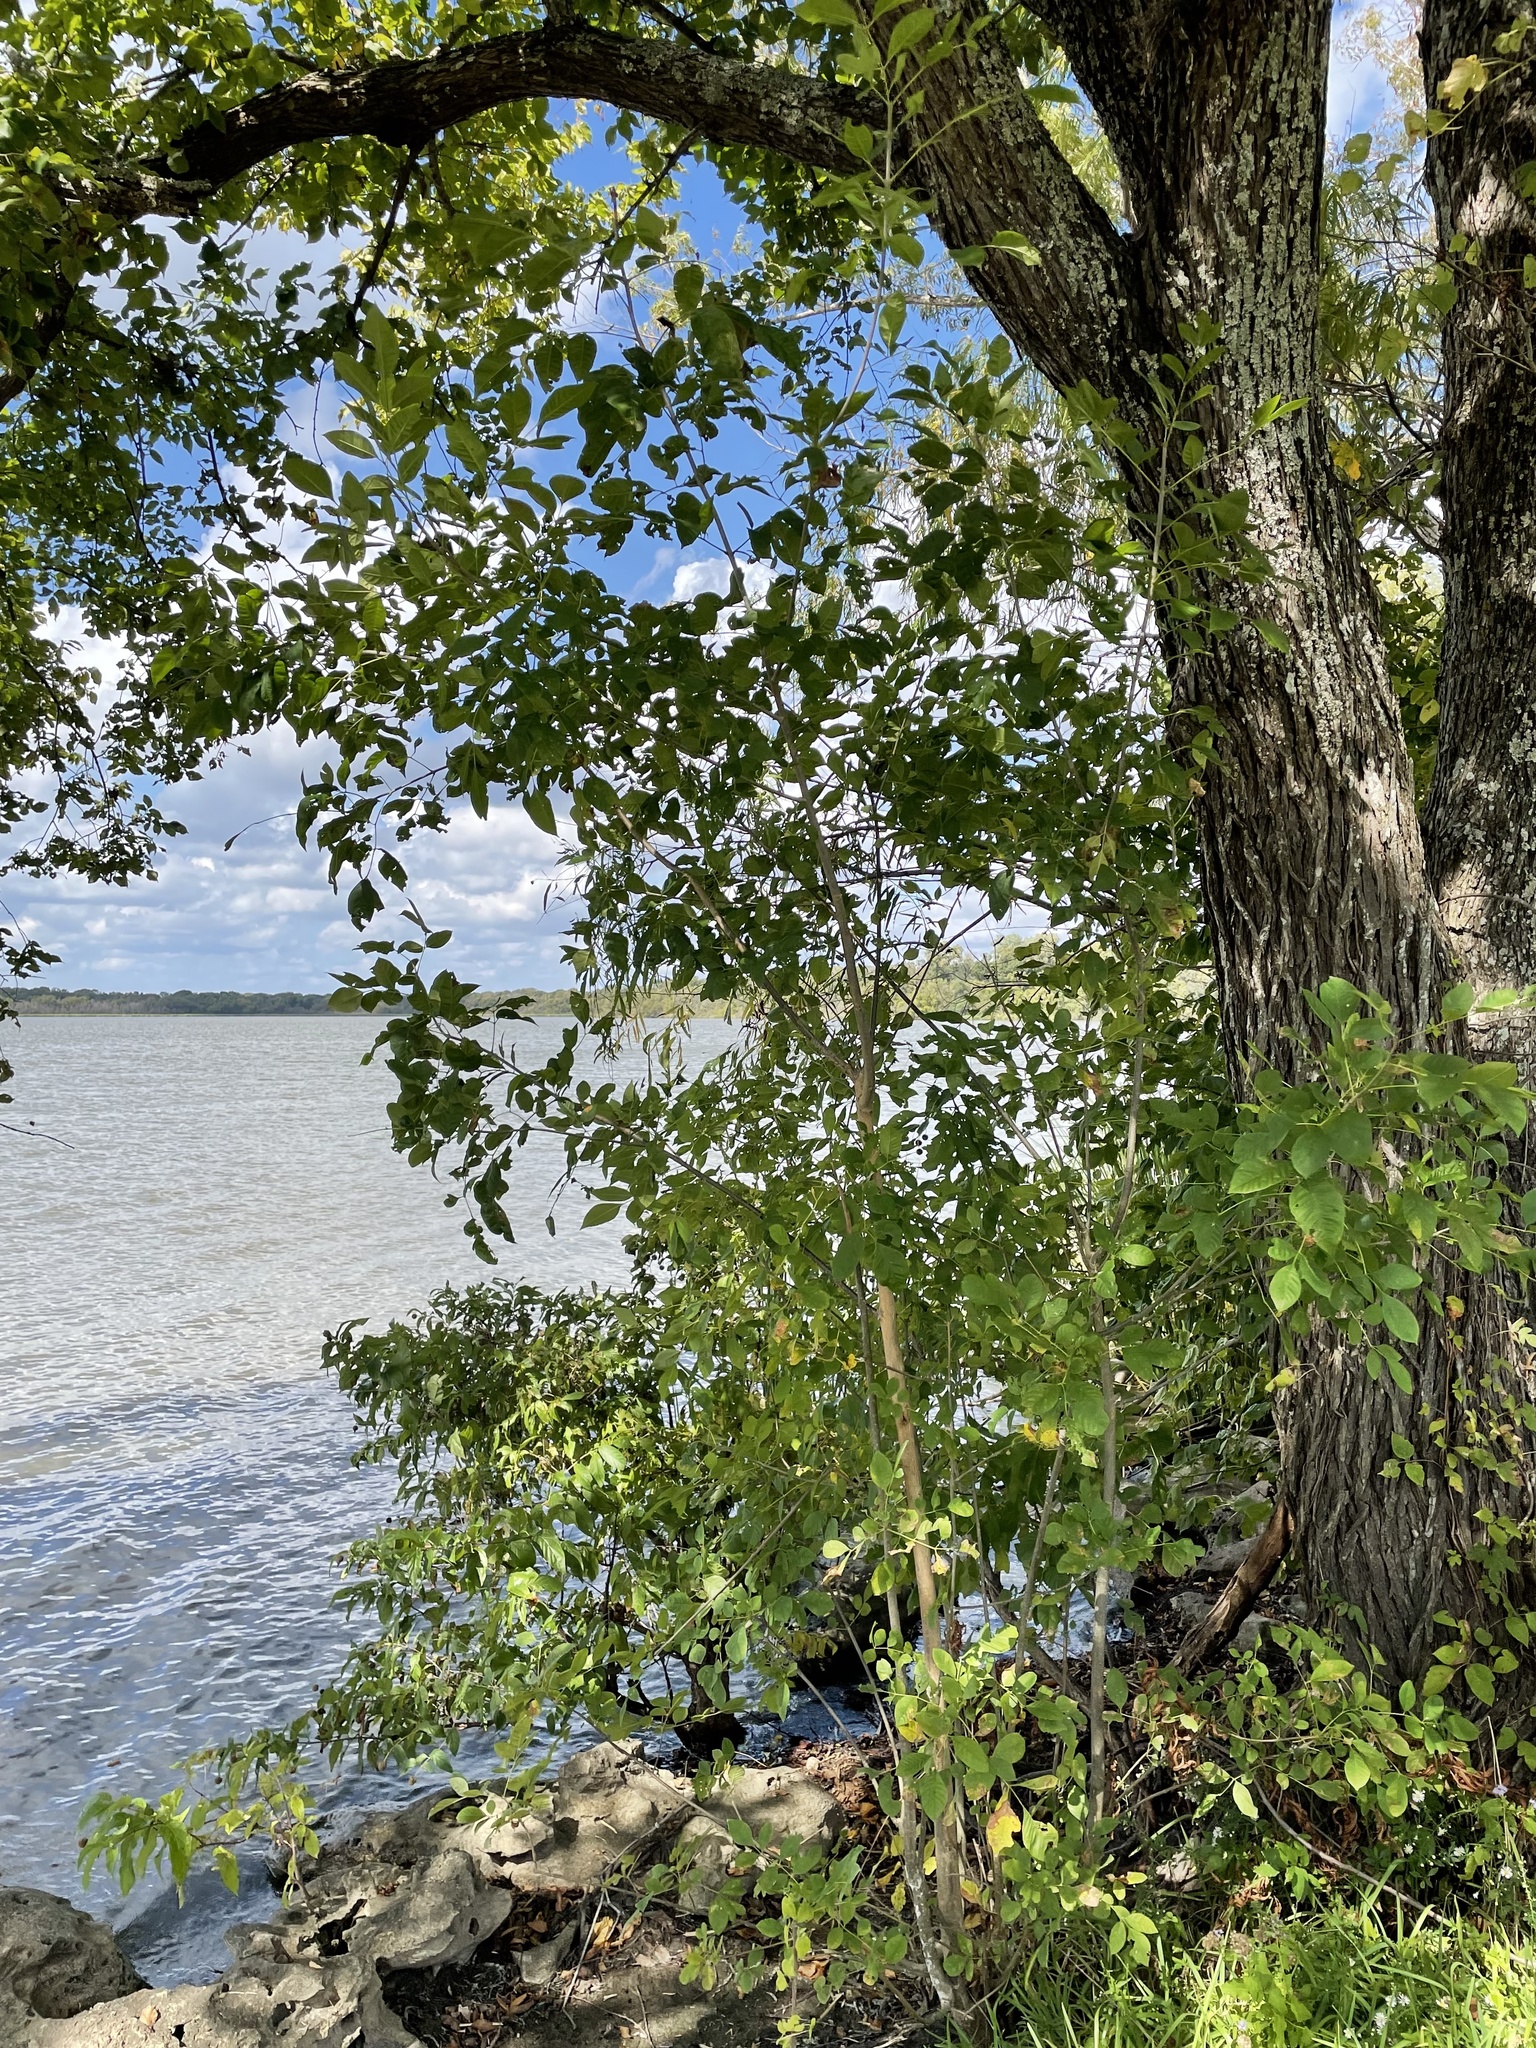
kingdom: Plantae
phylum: Tracheophyta
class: Magnoliopsida
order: Lamiales
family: Oleaceae
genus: Fraxinus
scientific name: Fraxinus pennsylvanica
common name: Green ash
